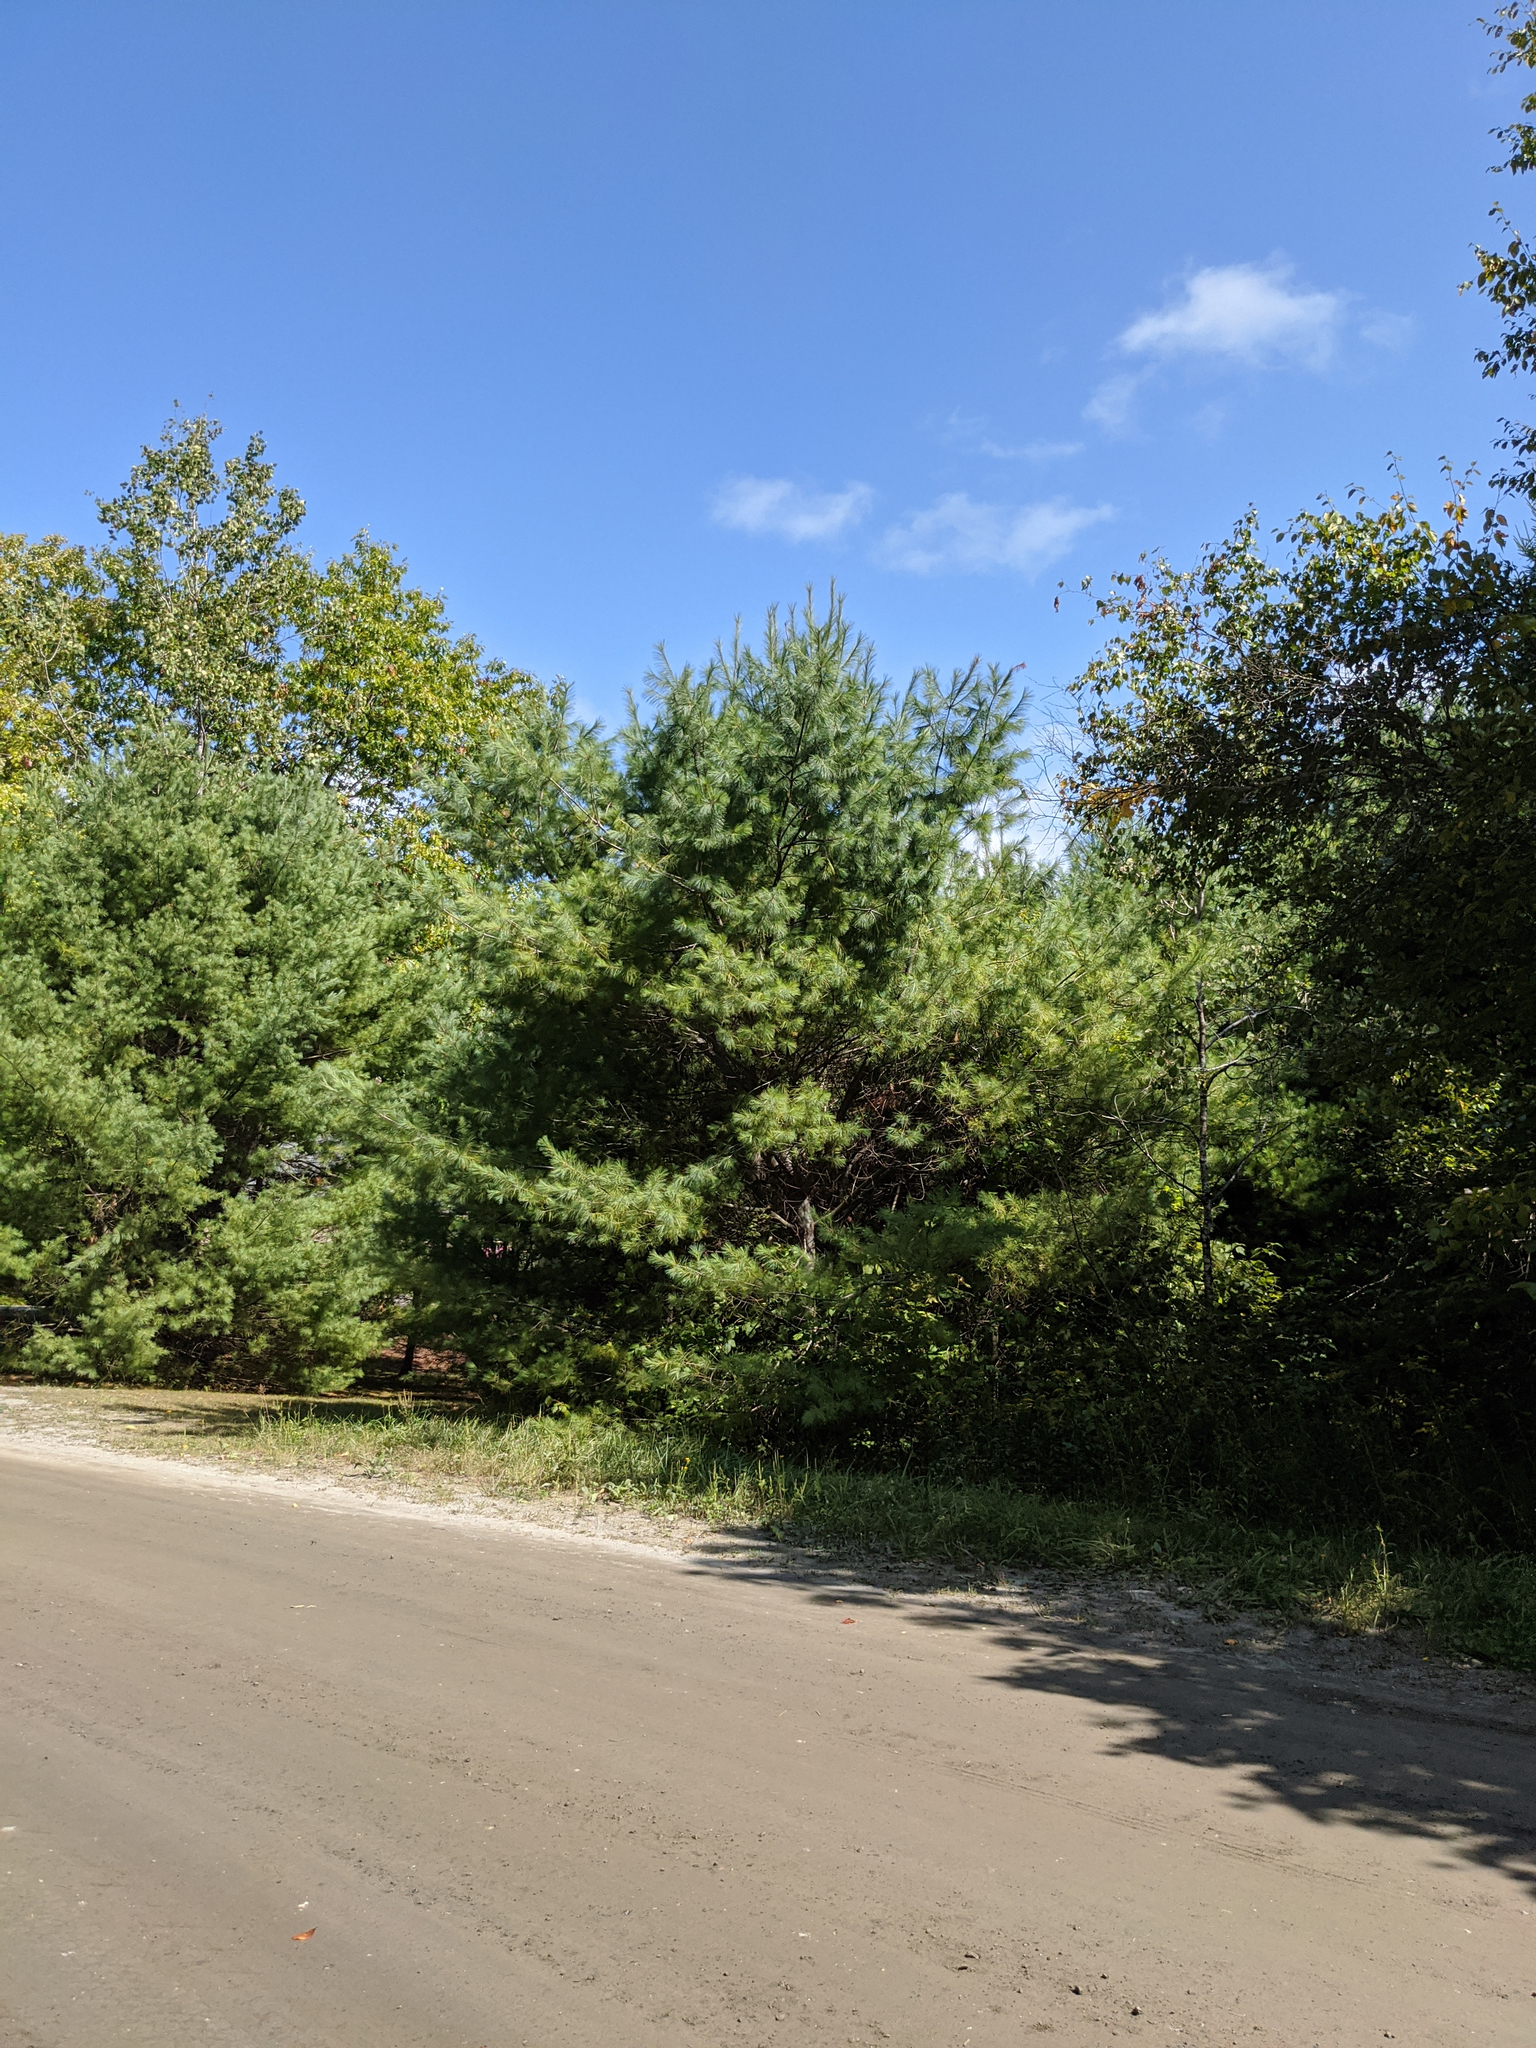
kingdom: Plantae
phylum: Tracheophyta
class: Pinopsida
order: Pinales
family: Pinaceae
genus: Pinus
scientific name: Pinus strobus
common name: Weymouth pine
